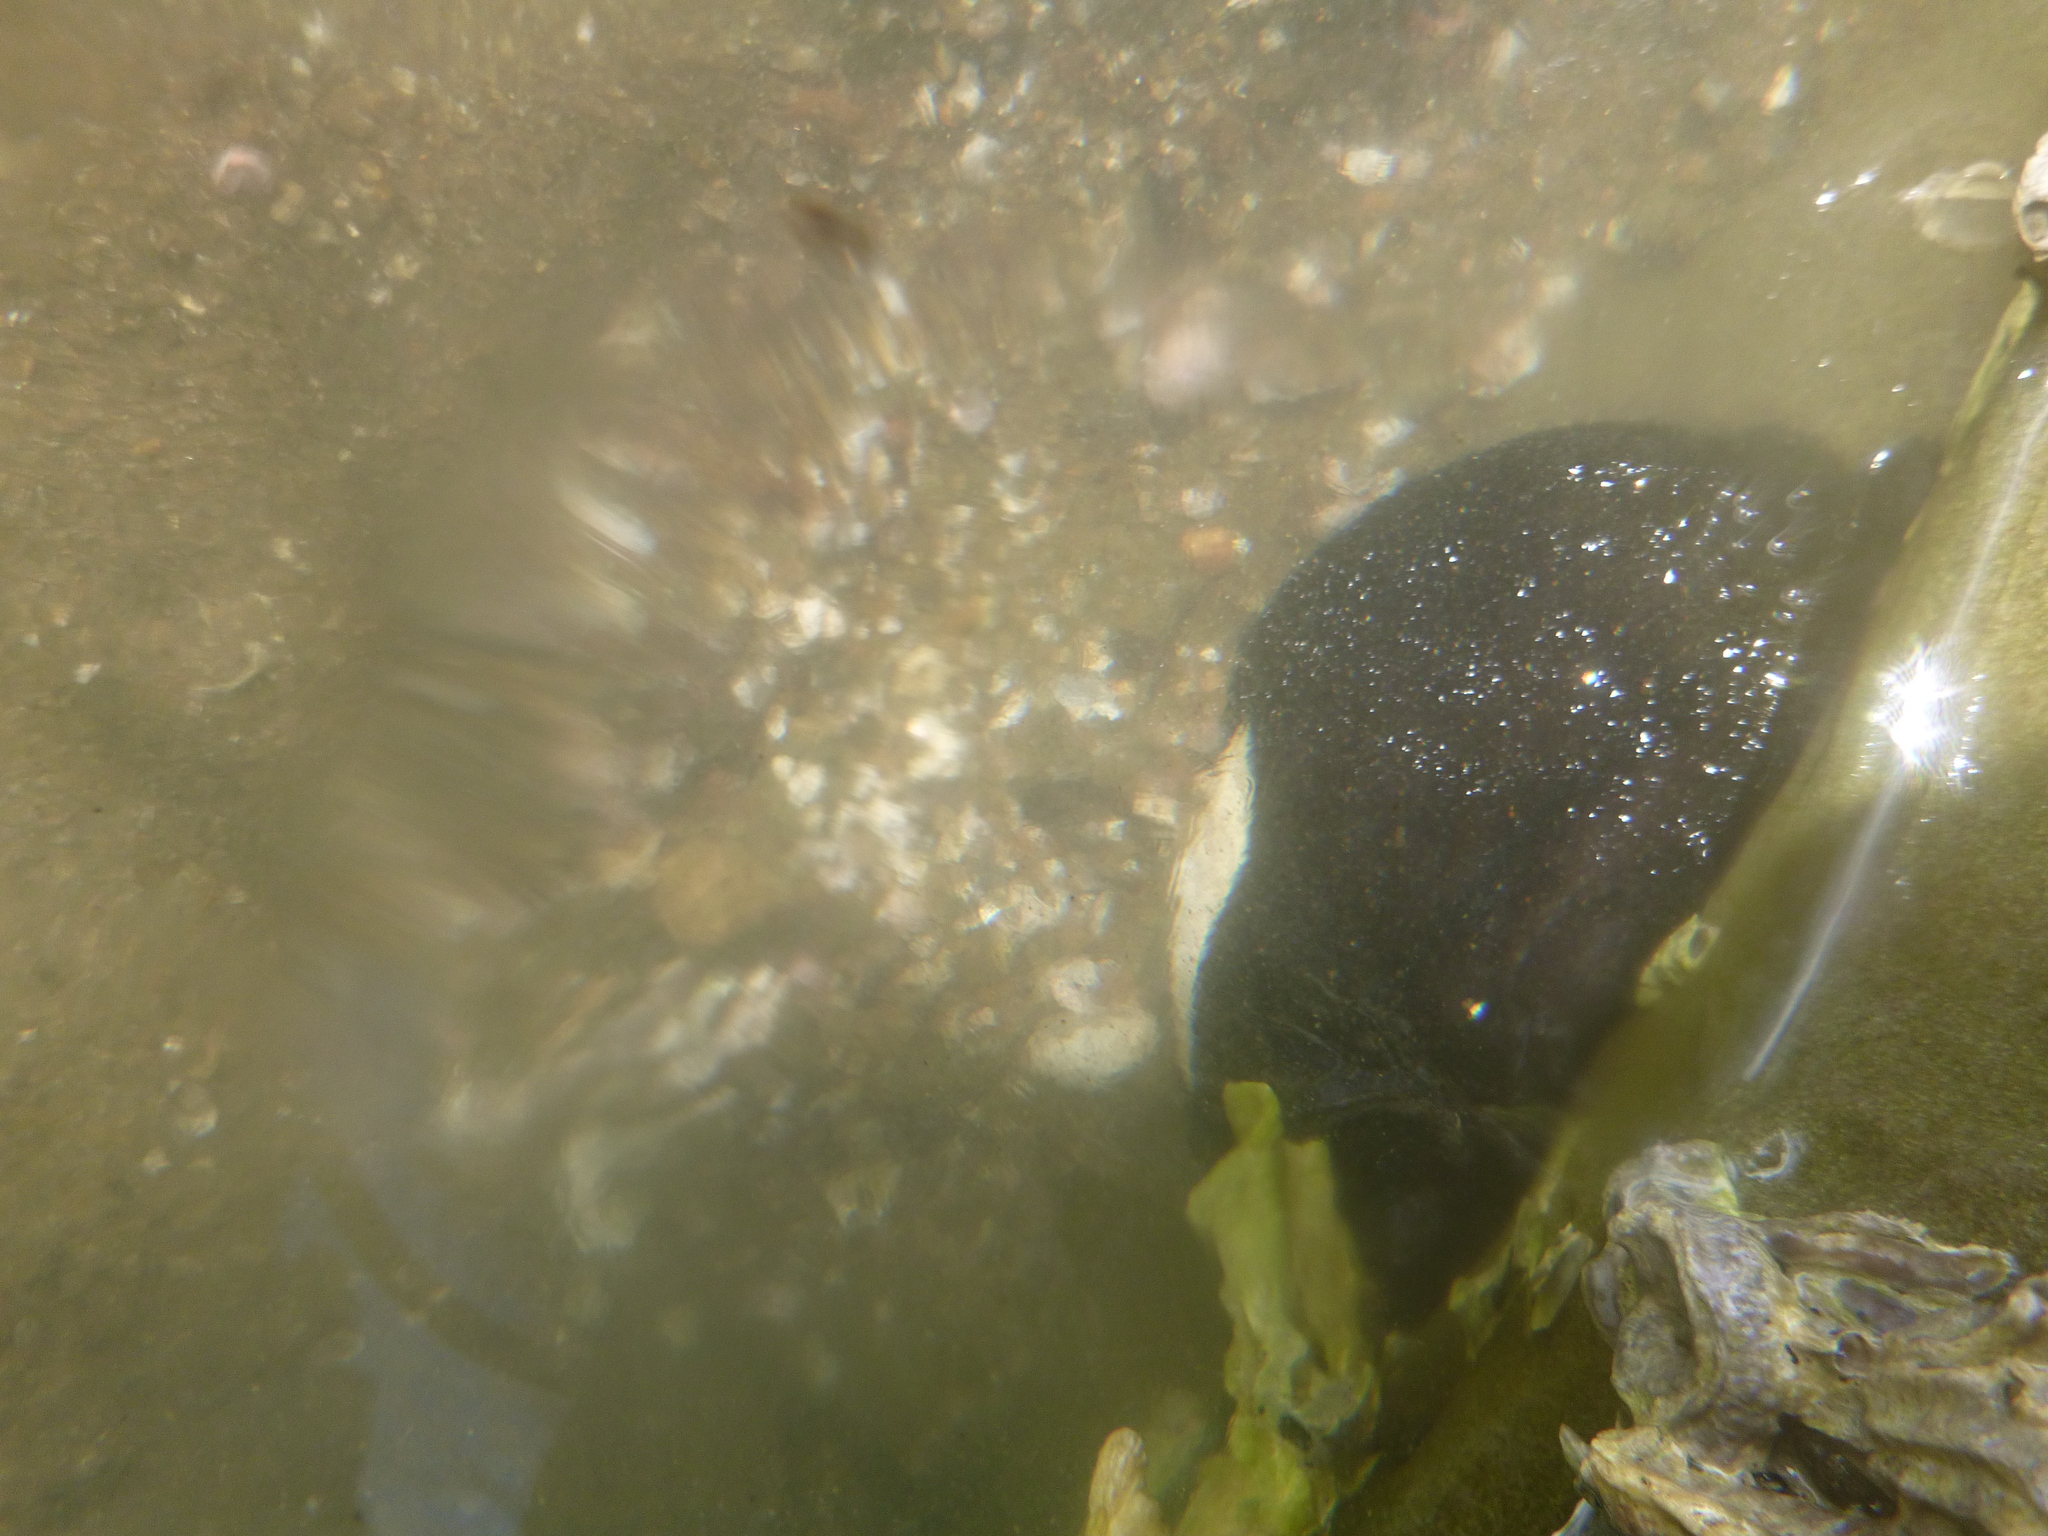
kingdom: Animalia
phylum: Mollusca
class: Gastropoda
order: Lepetellida
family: Fissurellidae
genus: Scutus
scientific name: Scutus breviculus
